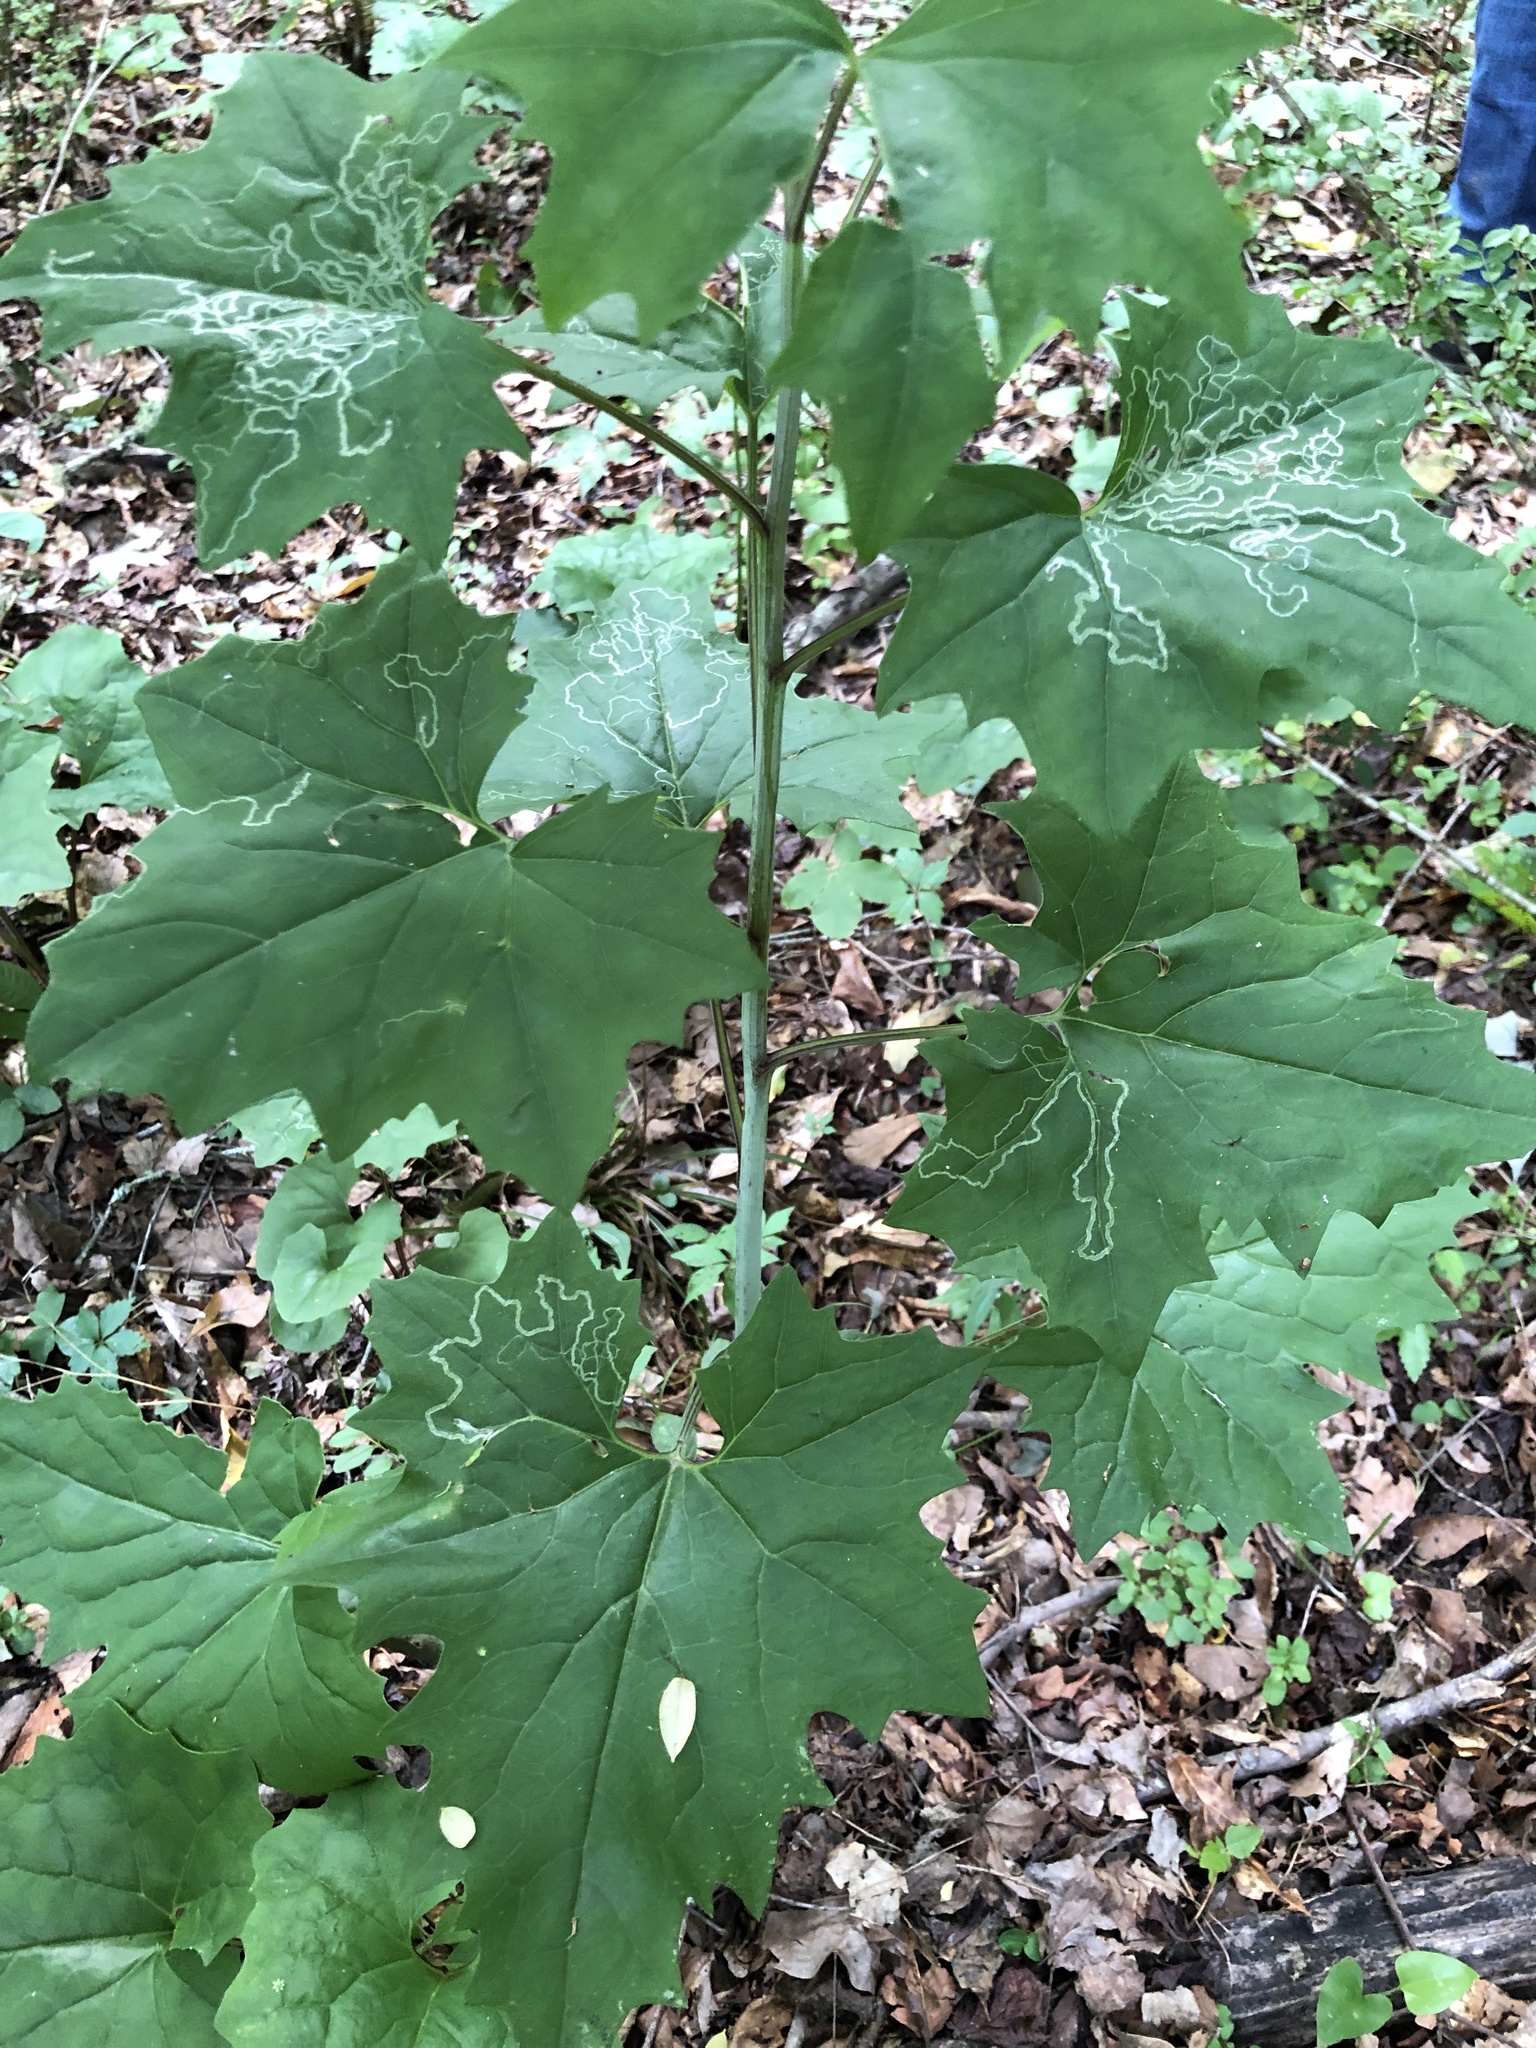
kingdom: Plantae
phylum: Tracheophyta
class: Magnoliopsida
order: Asterales
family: Asteraceae
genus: Arnoglossum
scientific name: Arnoglossum atriplicifolium
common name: Pale indian-plantain
